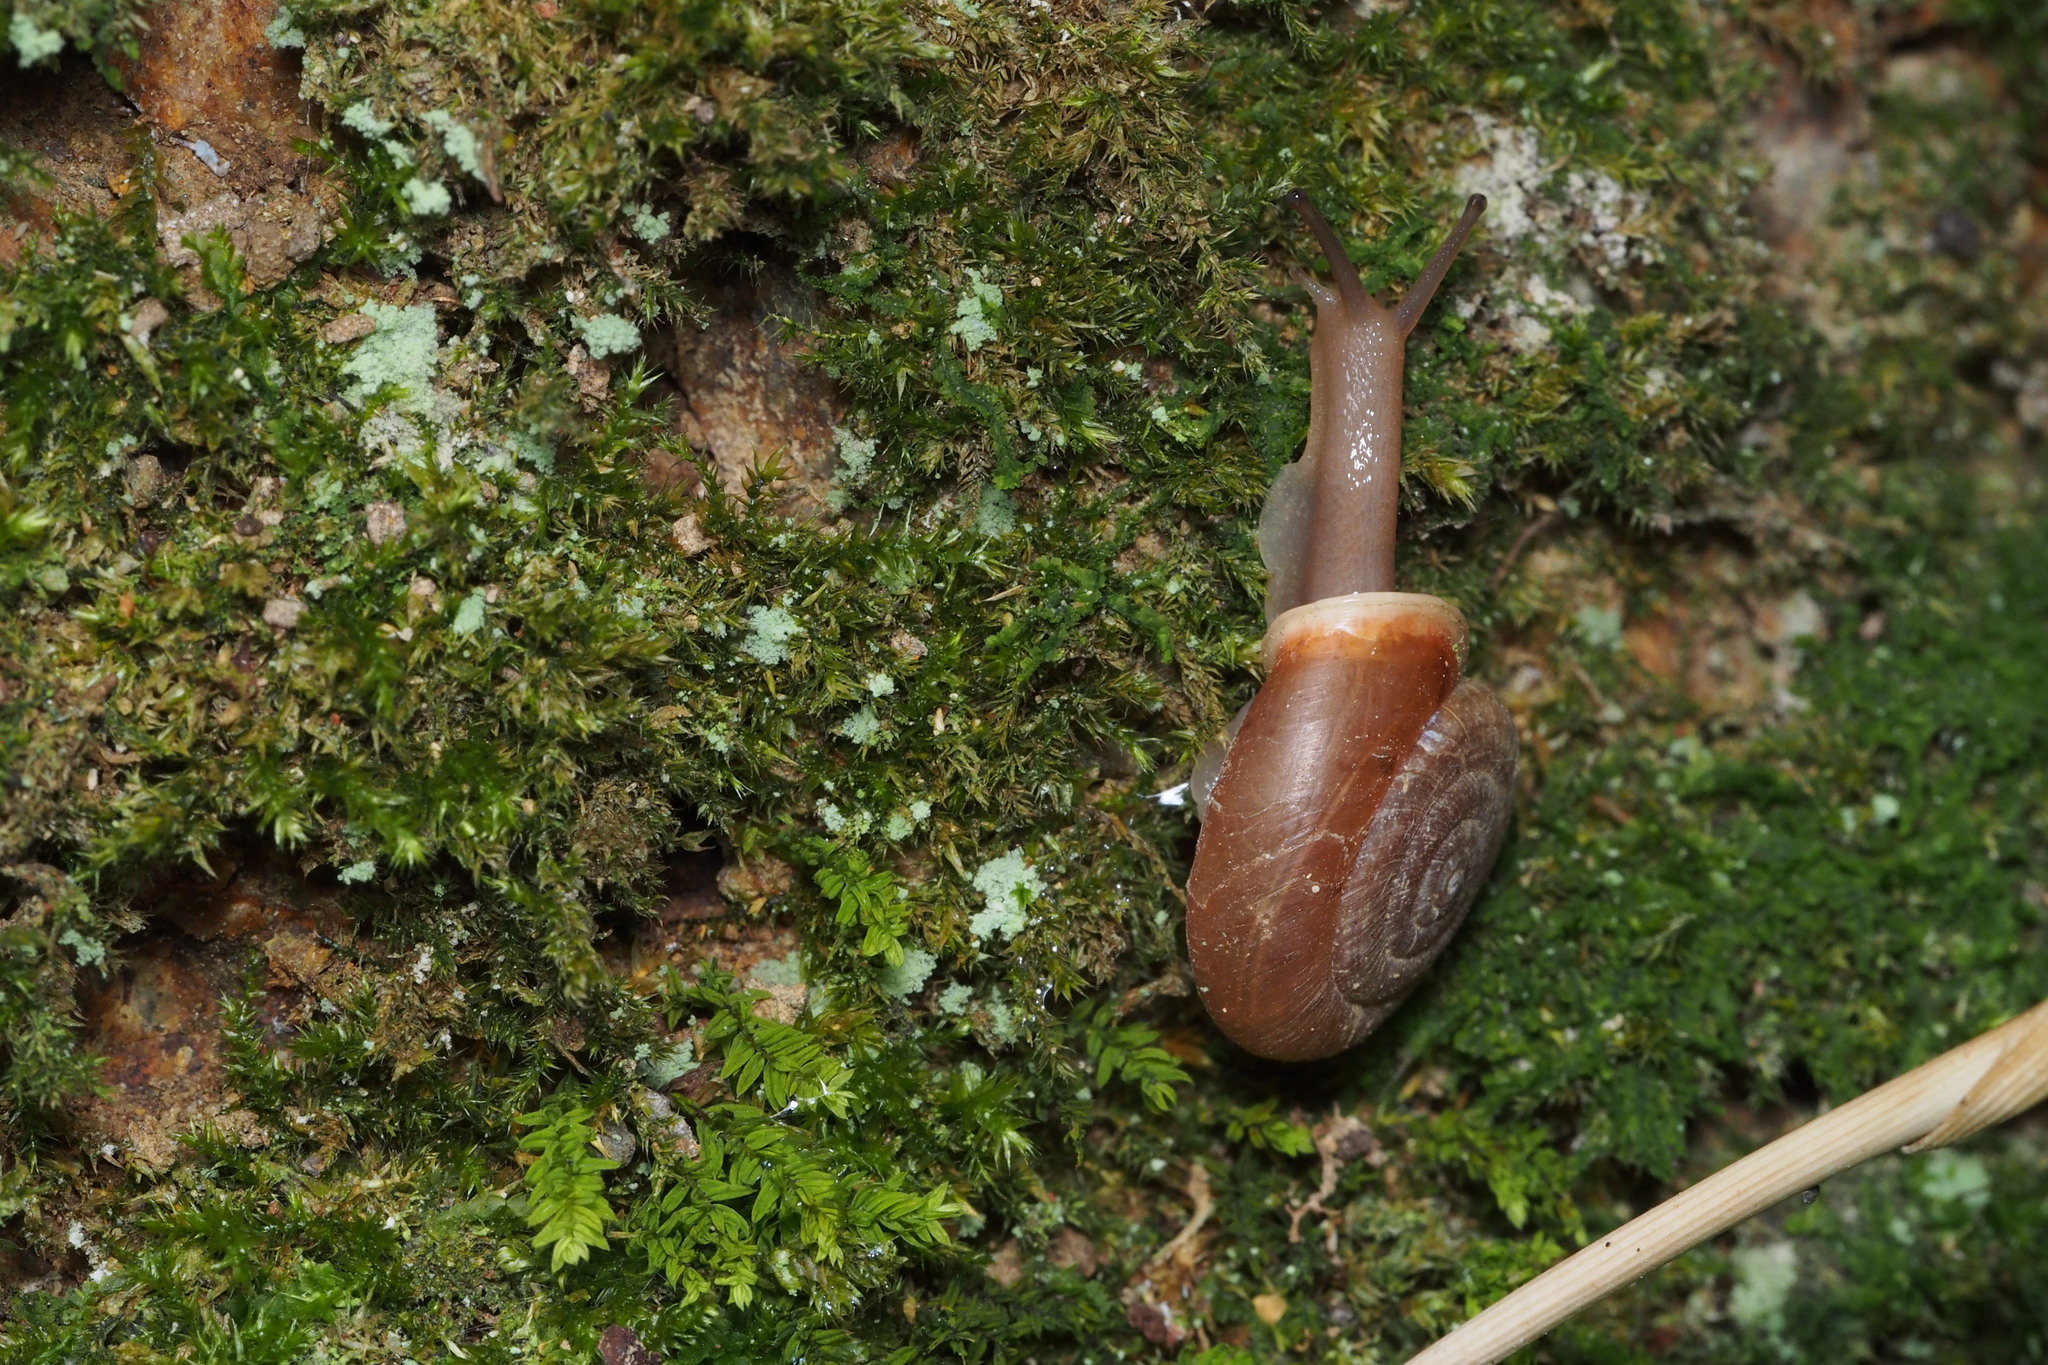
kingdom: Animalia
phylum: Mollusca
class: Gastropoda
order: Stylommatophora
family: Camaenidae
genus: Aegista
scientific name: Aegista kobensis
